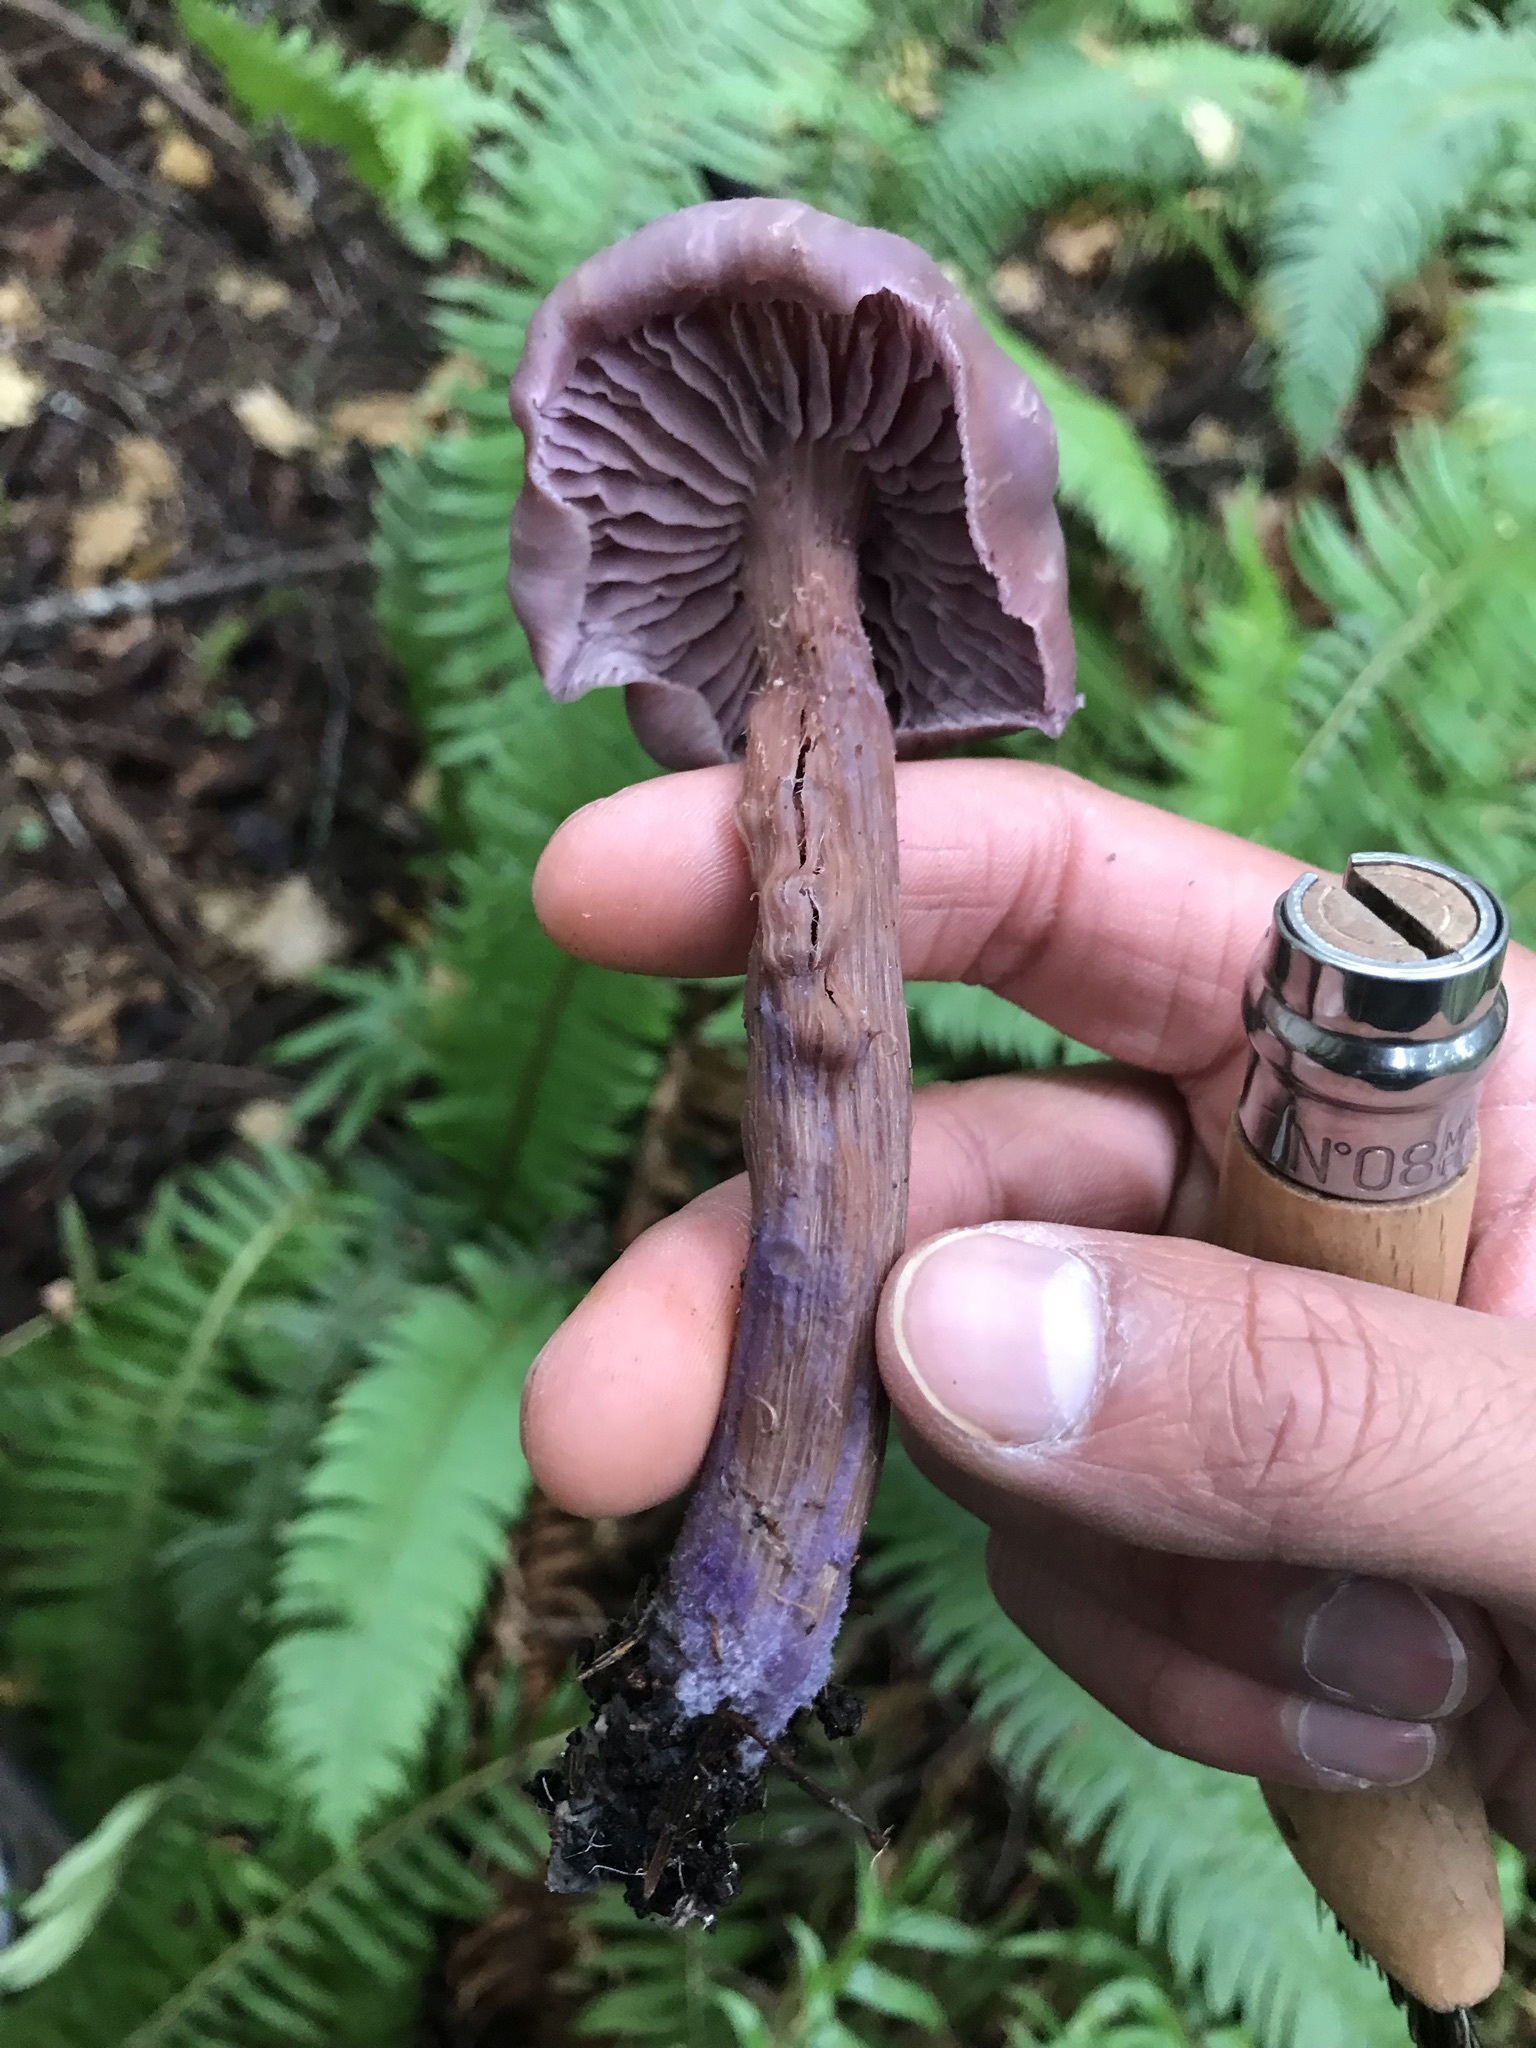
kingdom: Fungi
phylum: Basidiomycota
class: Agaricomycetes
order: Agaricales
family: Hydnangiaceae
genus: Laccaria
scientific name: Laccaria amethysteo-occidentalis
